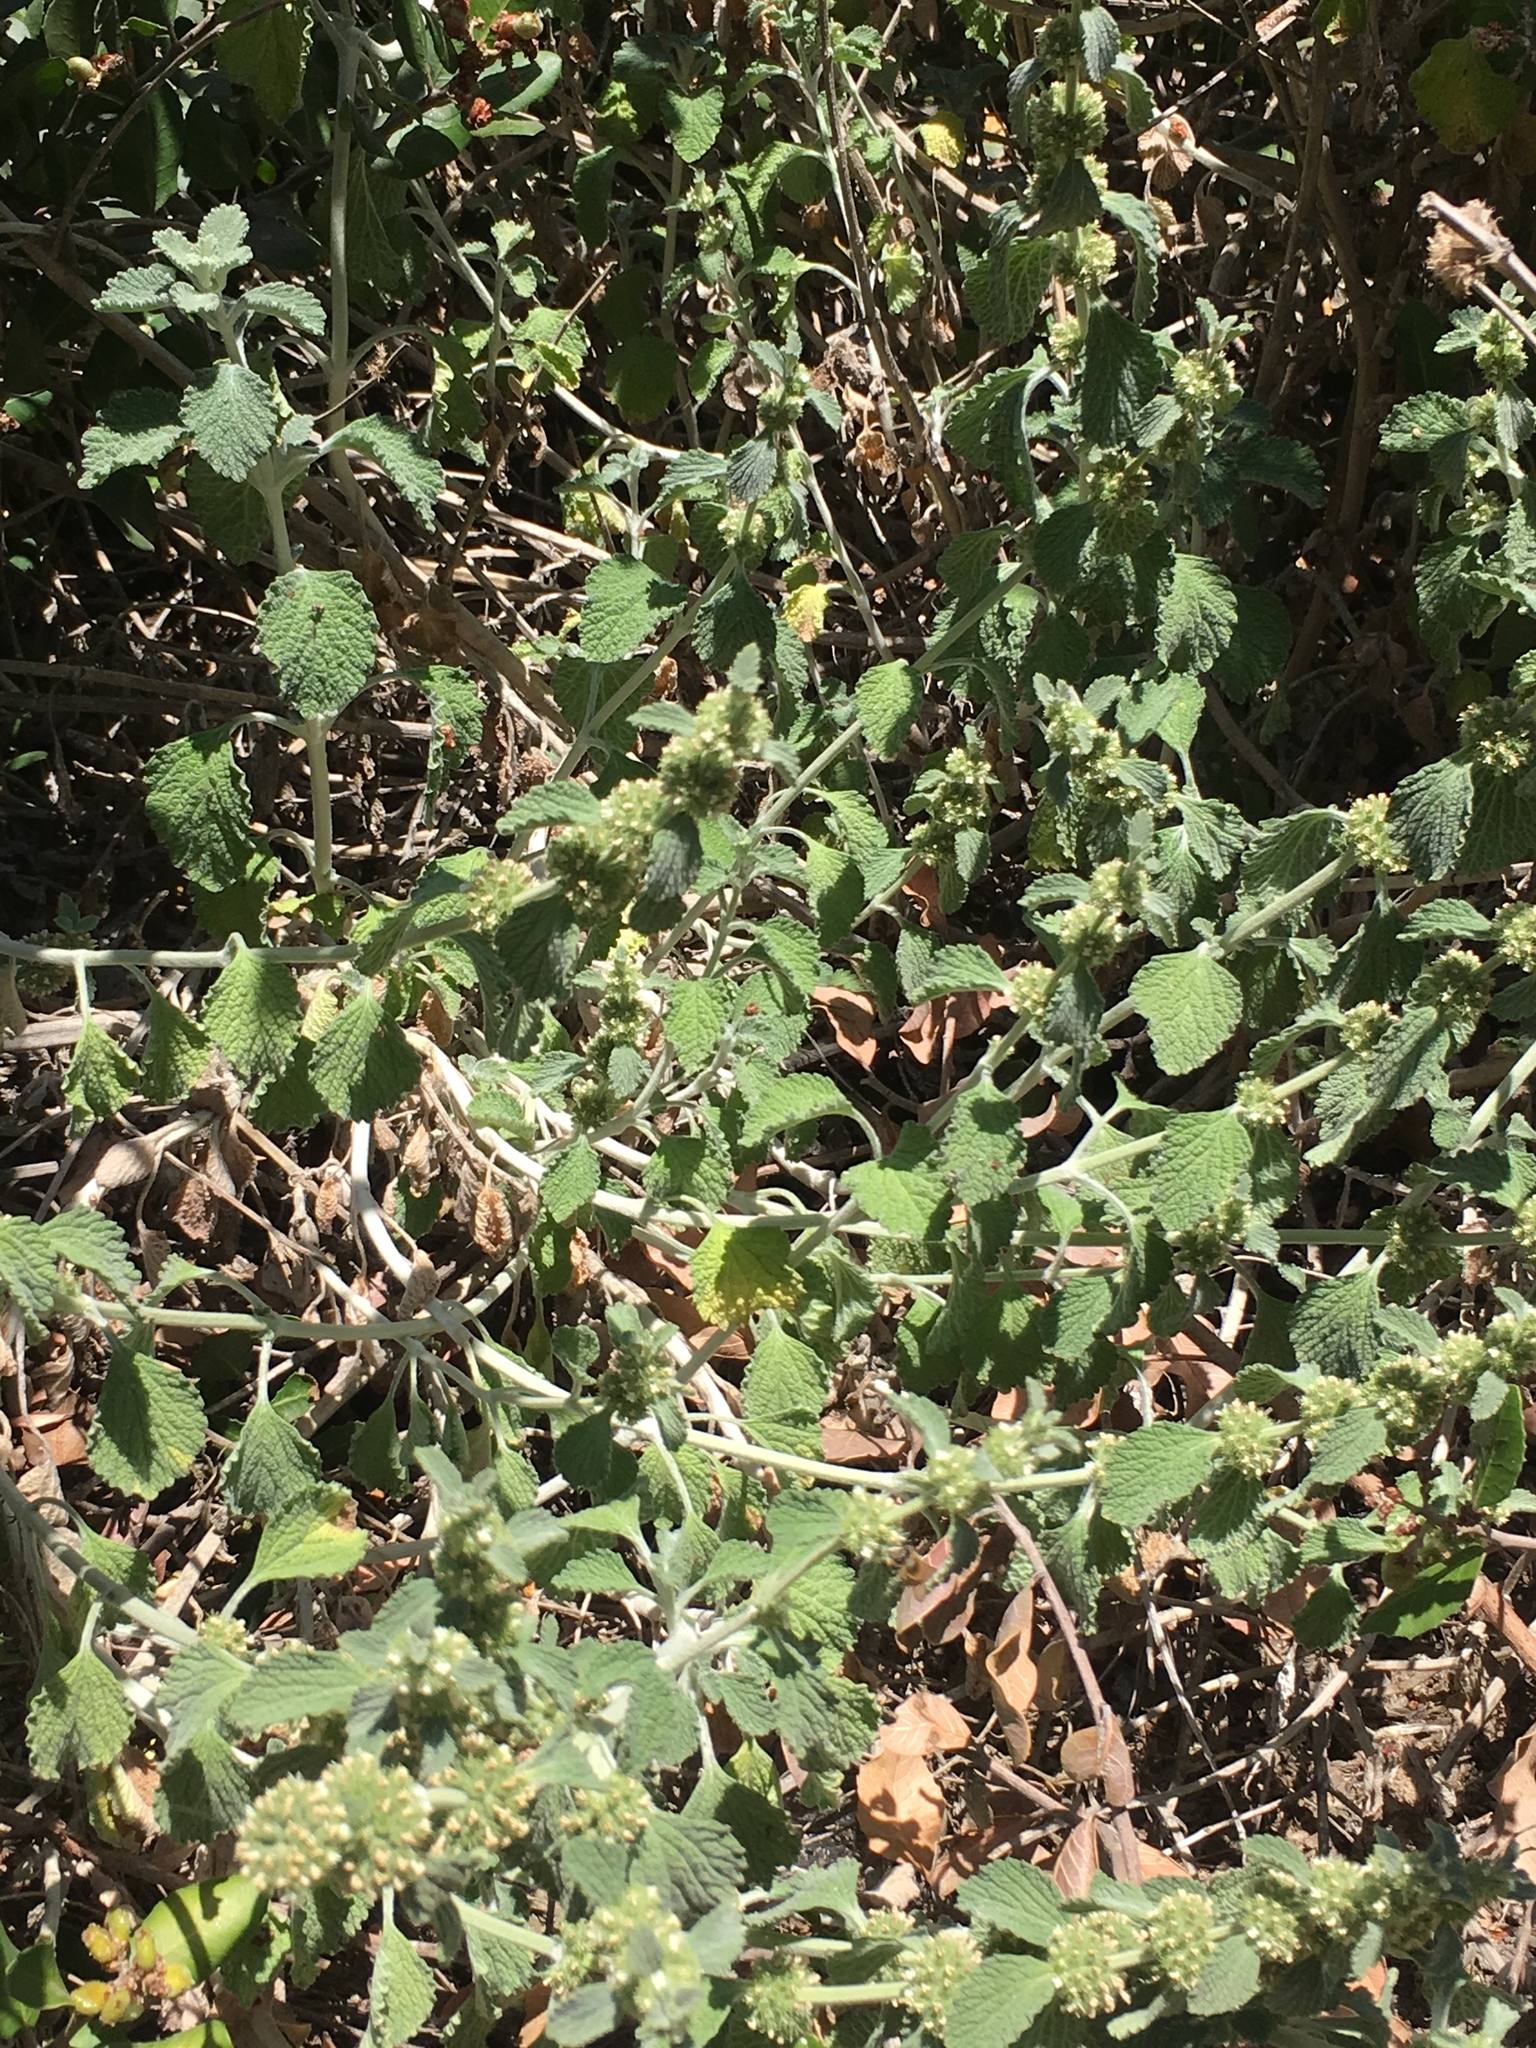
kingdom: Plantae
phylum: Tracheophyta
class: Magnoliopsida
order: Lamiales
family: Lamiaceae
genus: Marrubium
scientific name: Marrubium vulgare
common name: Horehound
